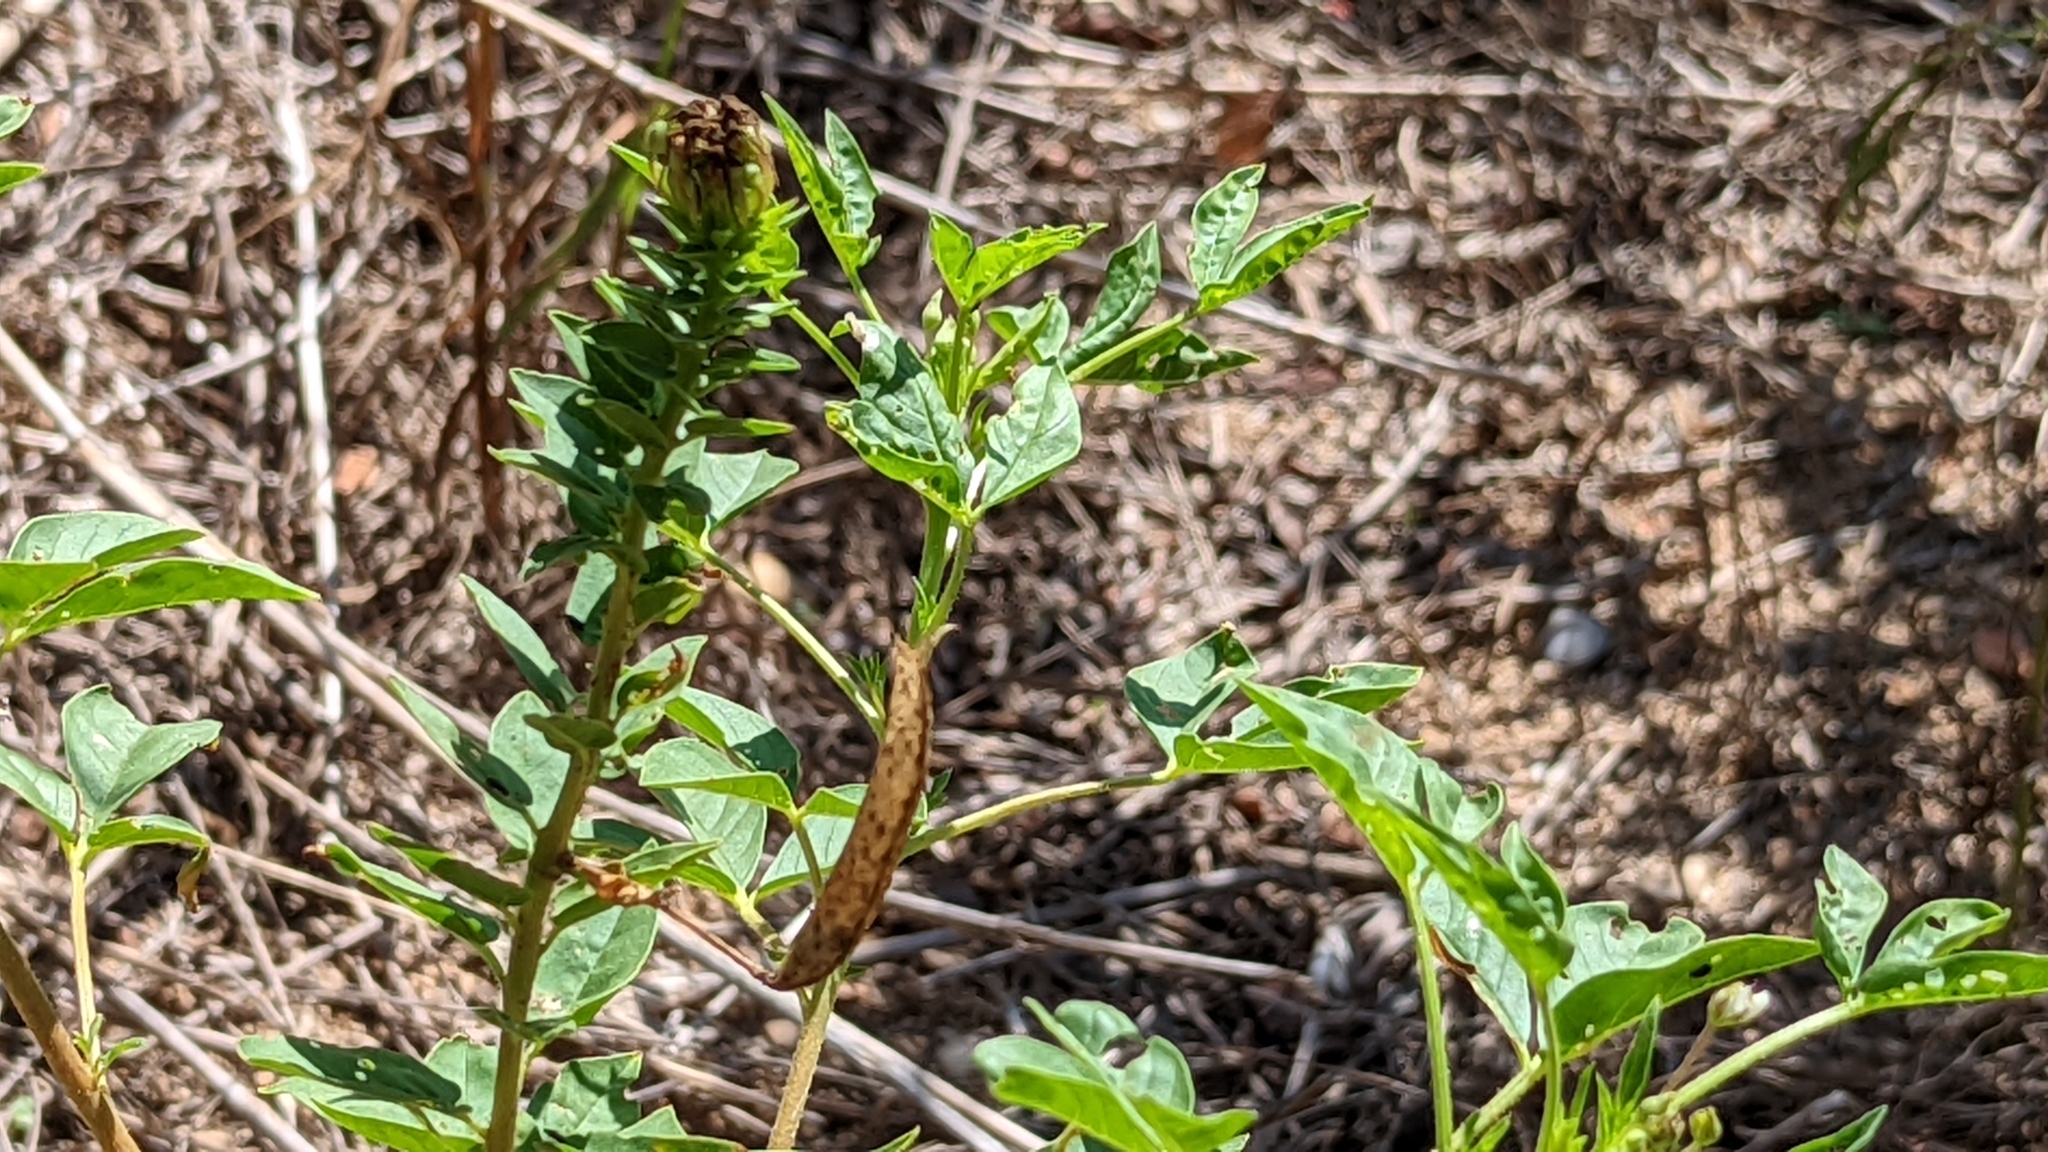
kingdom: Plantae
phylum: Tracheophyta
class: Magnoliopsida
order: Brassicales
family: Cleomaceae
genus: Polanisia
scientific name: Polanisia dodecandra
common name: Clammyweed
